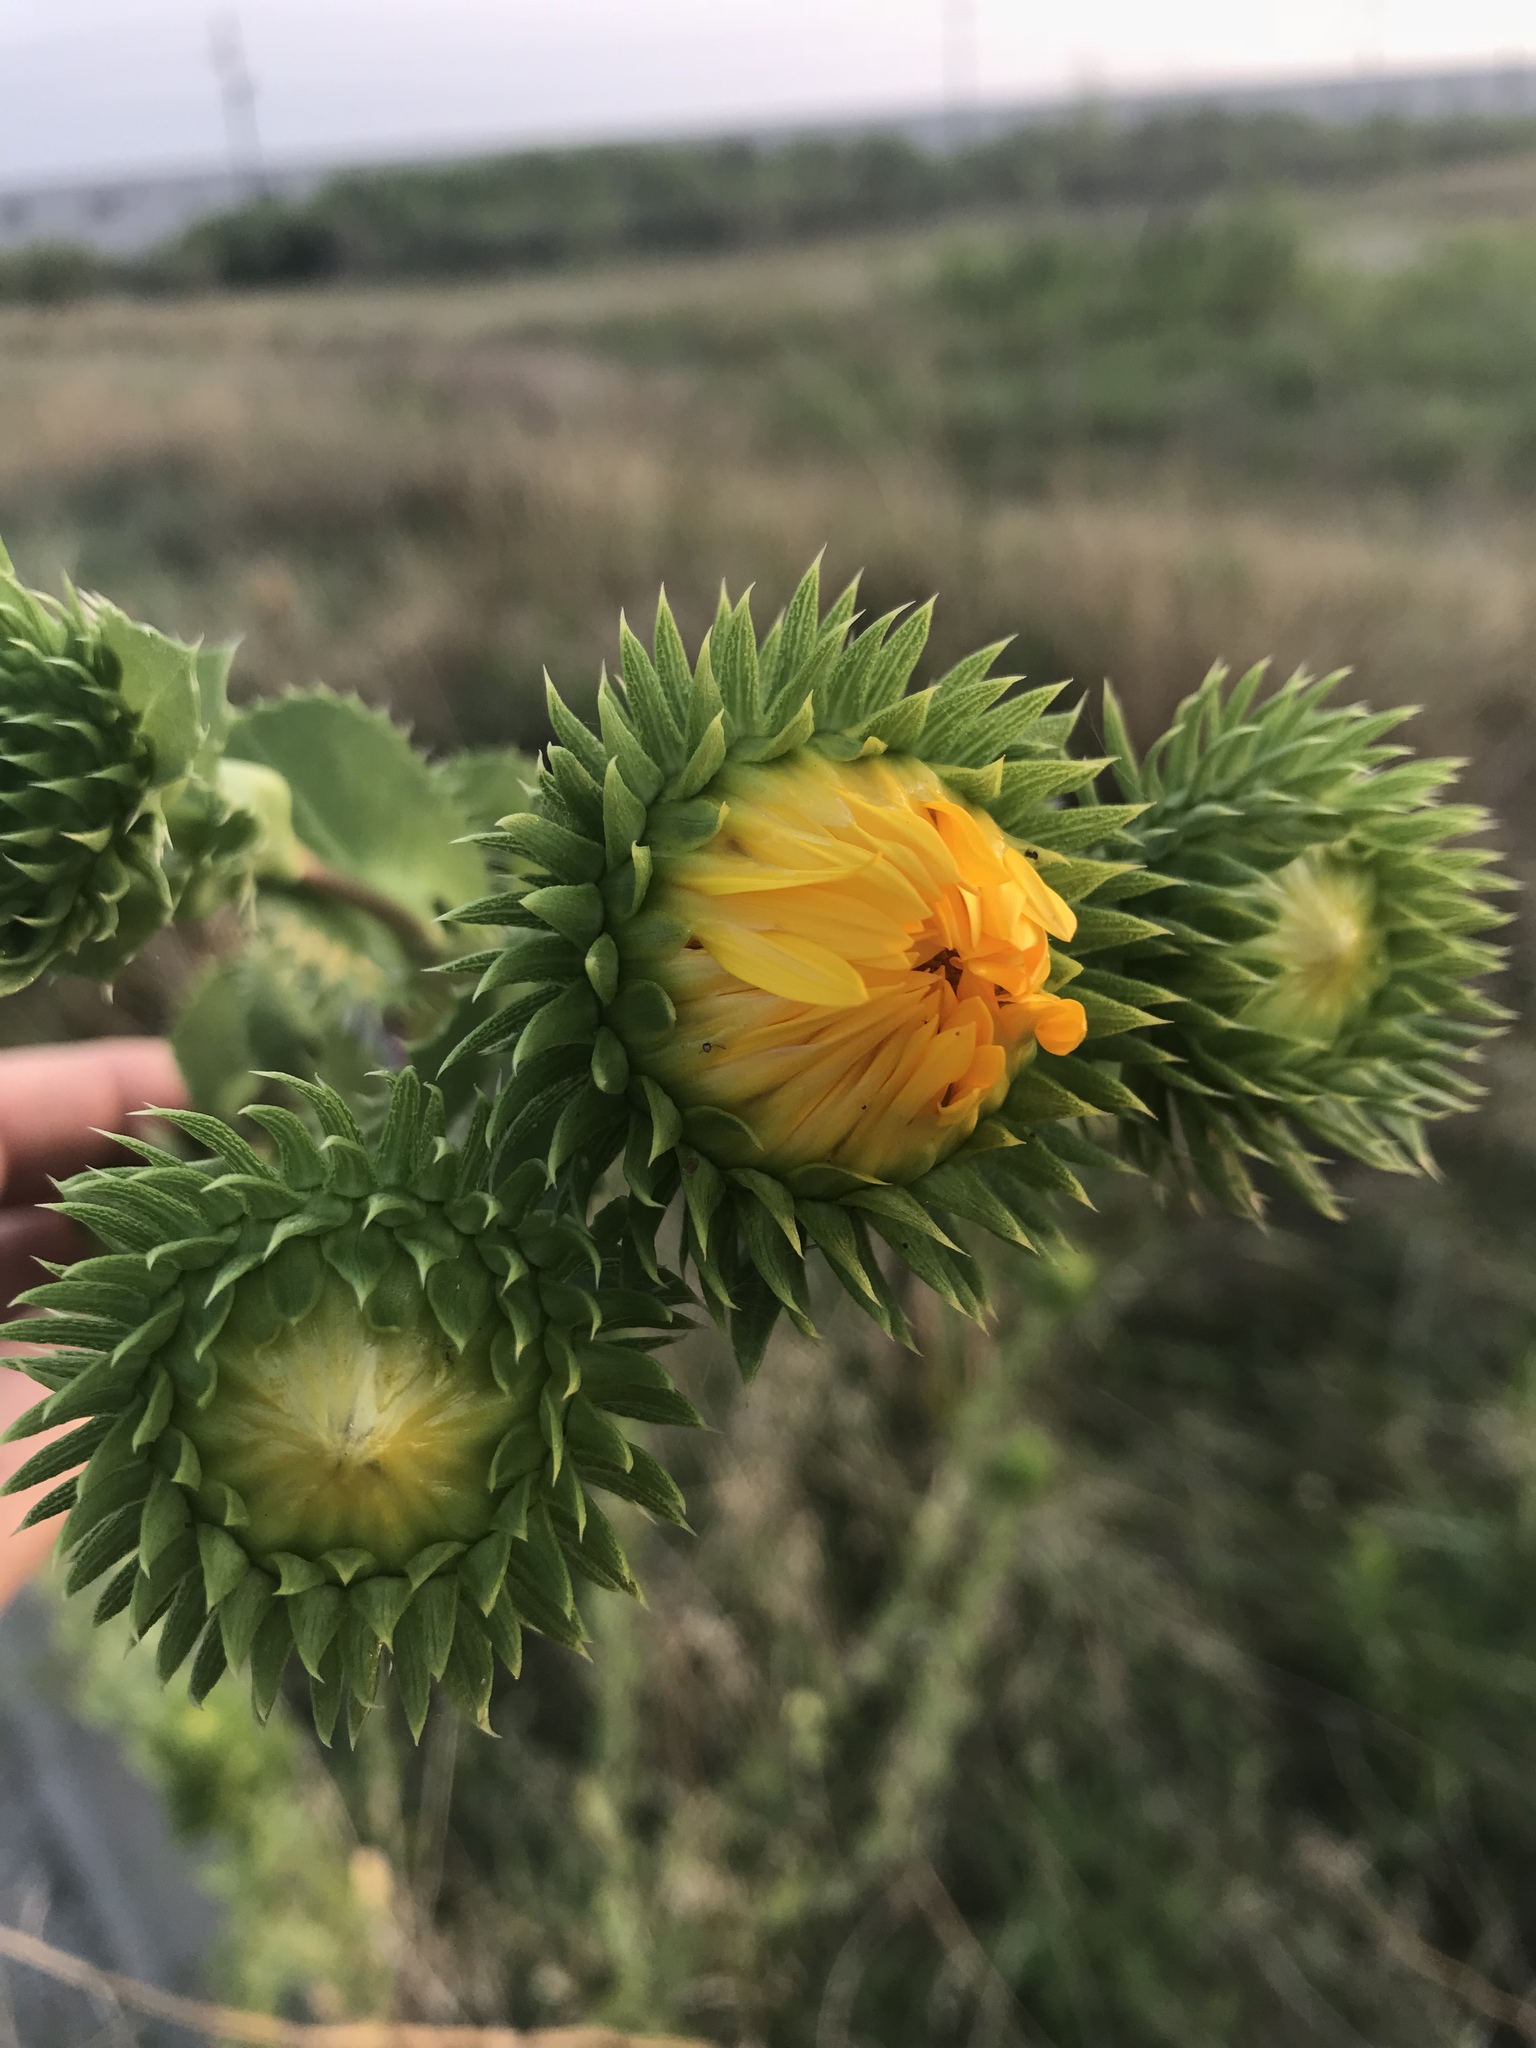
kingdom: Plantae
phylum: Tracheophyta
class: Magnoliopsida
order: Asterales
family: Asteraceae
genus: Grindelia
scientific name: Grindelia ciliata
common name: Goldenweed
